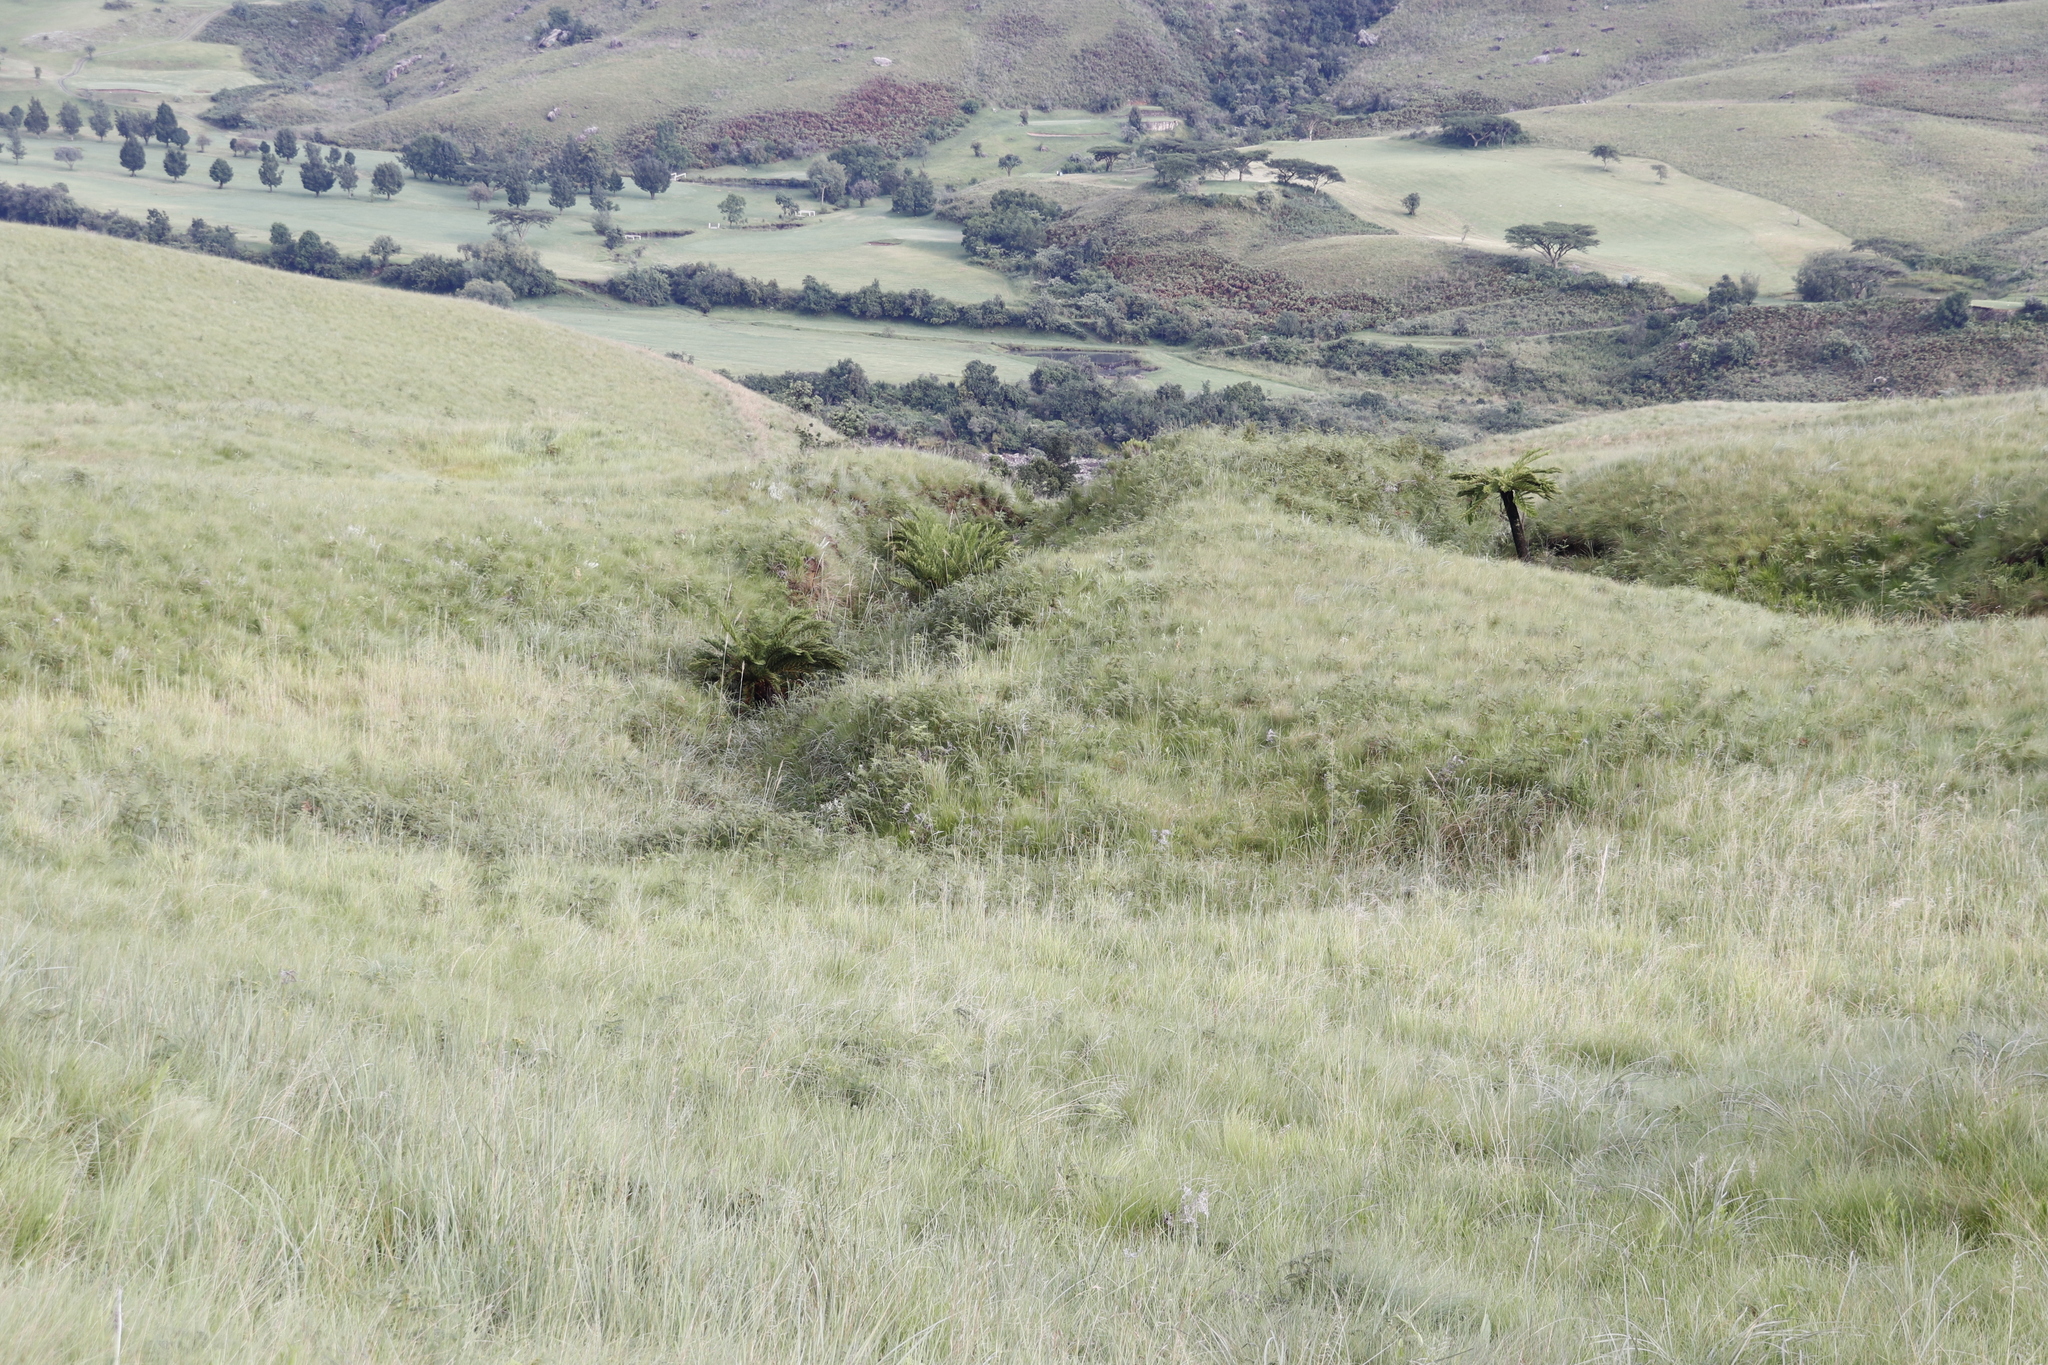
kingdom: Plantae
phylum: Tracheophyta
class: Polypodiopsida
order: Cyatheales
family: Cyatheaceae
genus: Alsophila
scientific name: Alsophila dregei
